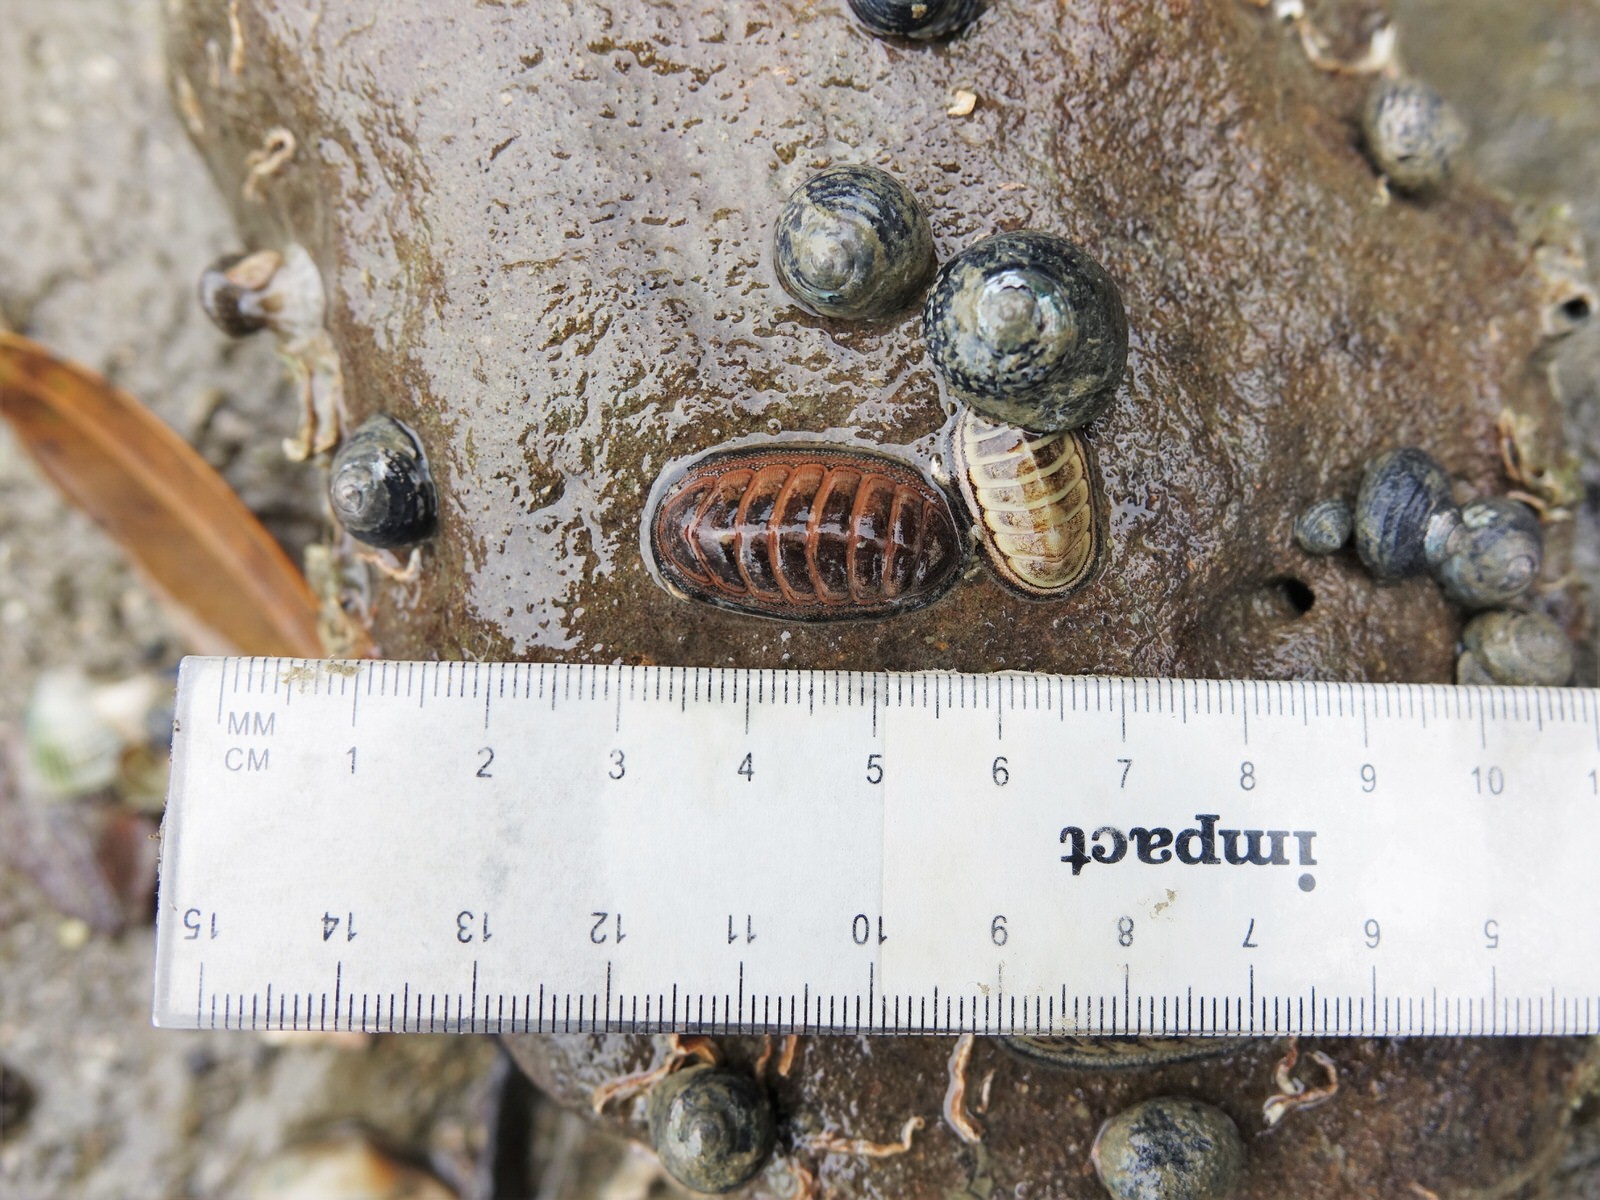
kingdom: Animalia
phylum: Mollusca
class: Polyplacophora
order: Chitonida
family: Chitonidae
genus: Chiton
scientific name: Chiton glaucus
